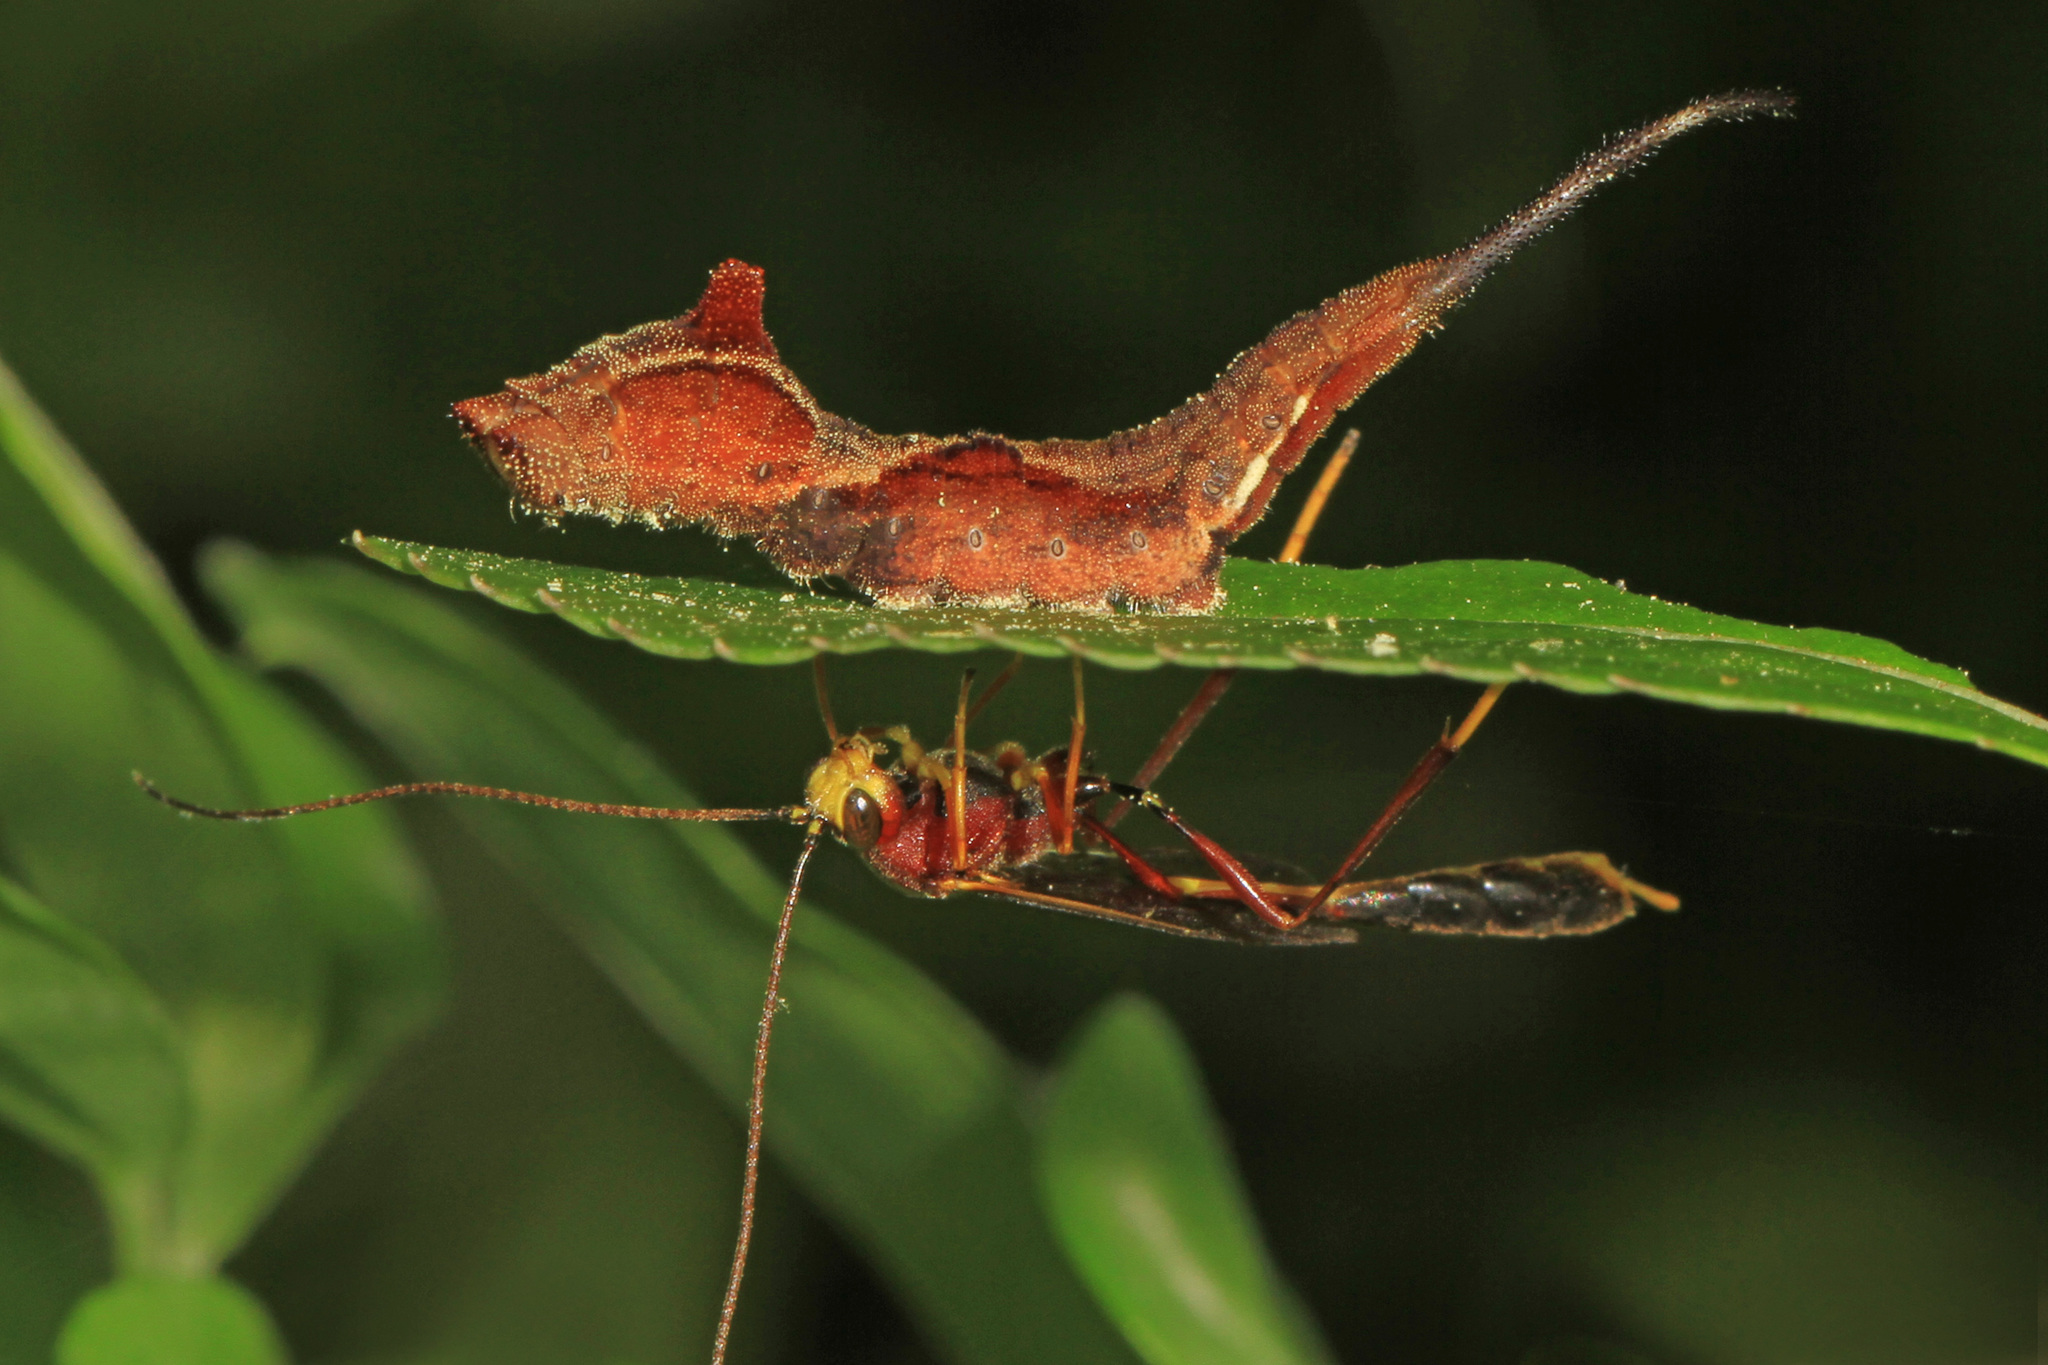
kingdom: Animalia
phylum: Arthropoda
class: Insecta
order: Lepidoptera
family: Drepanidae
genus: Oreta
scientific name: Oreta rosea
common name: Rose hooktip
